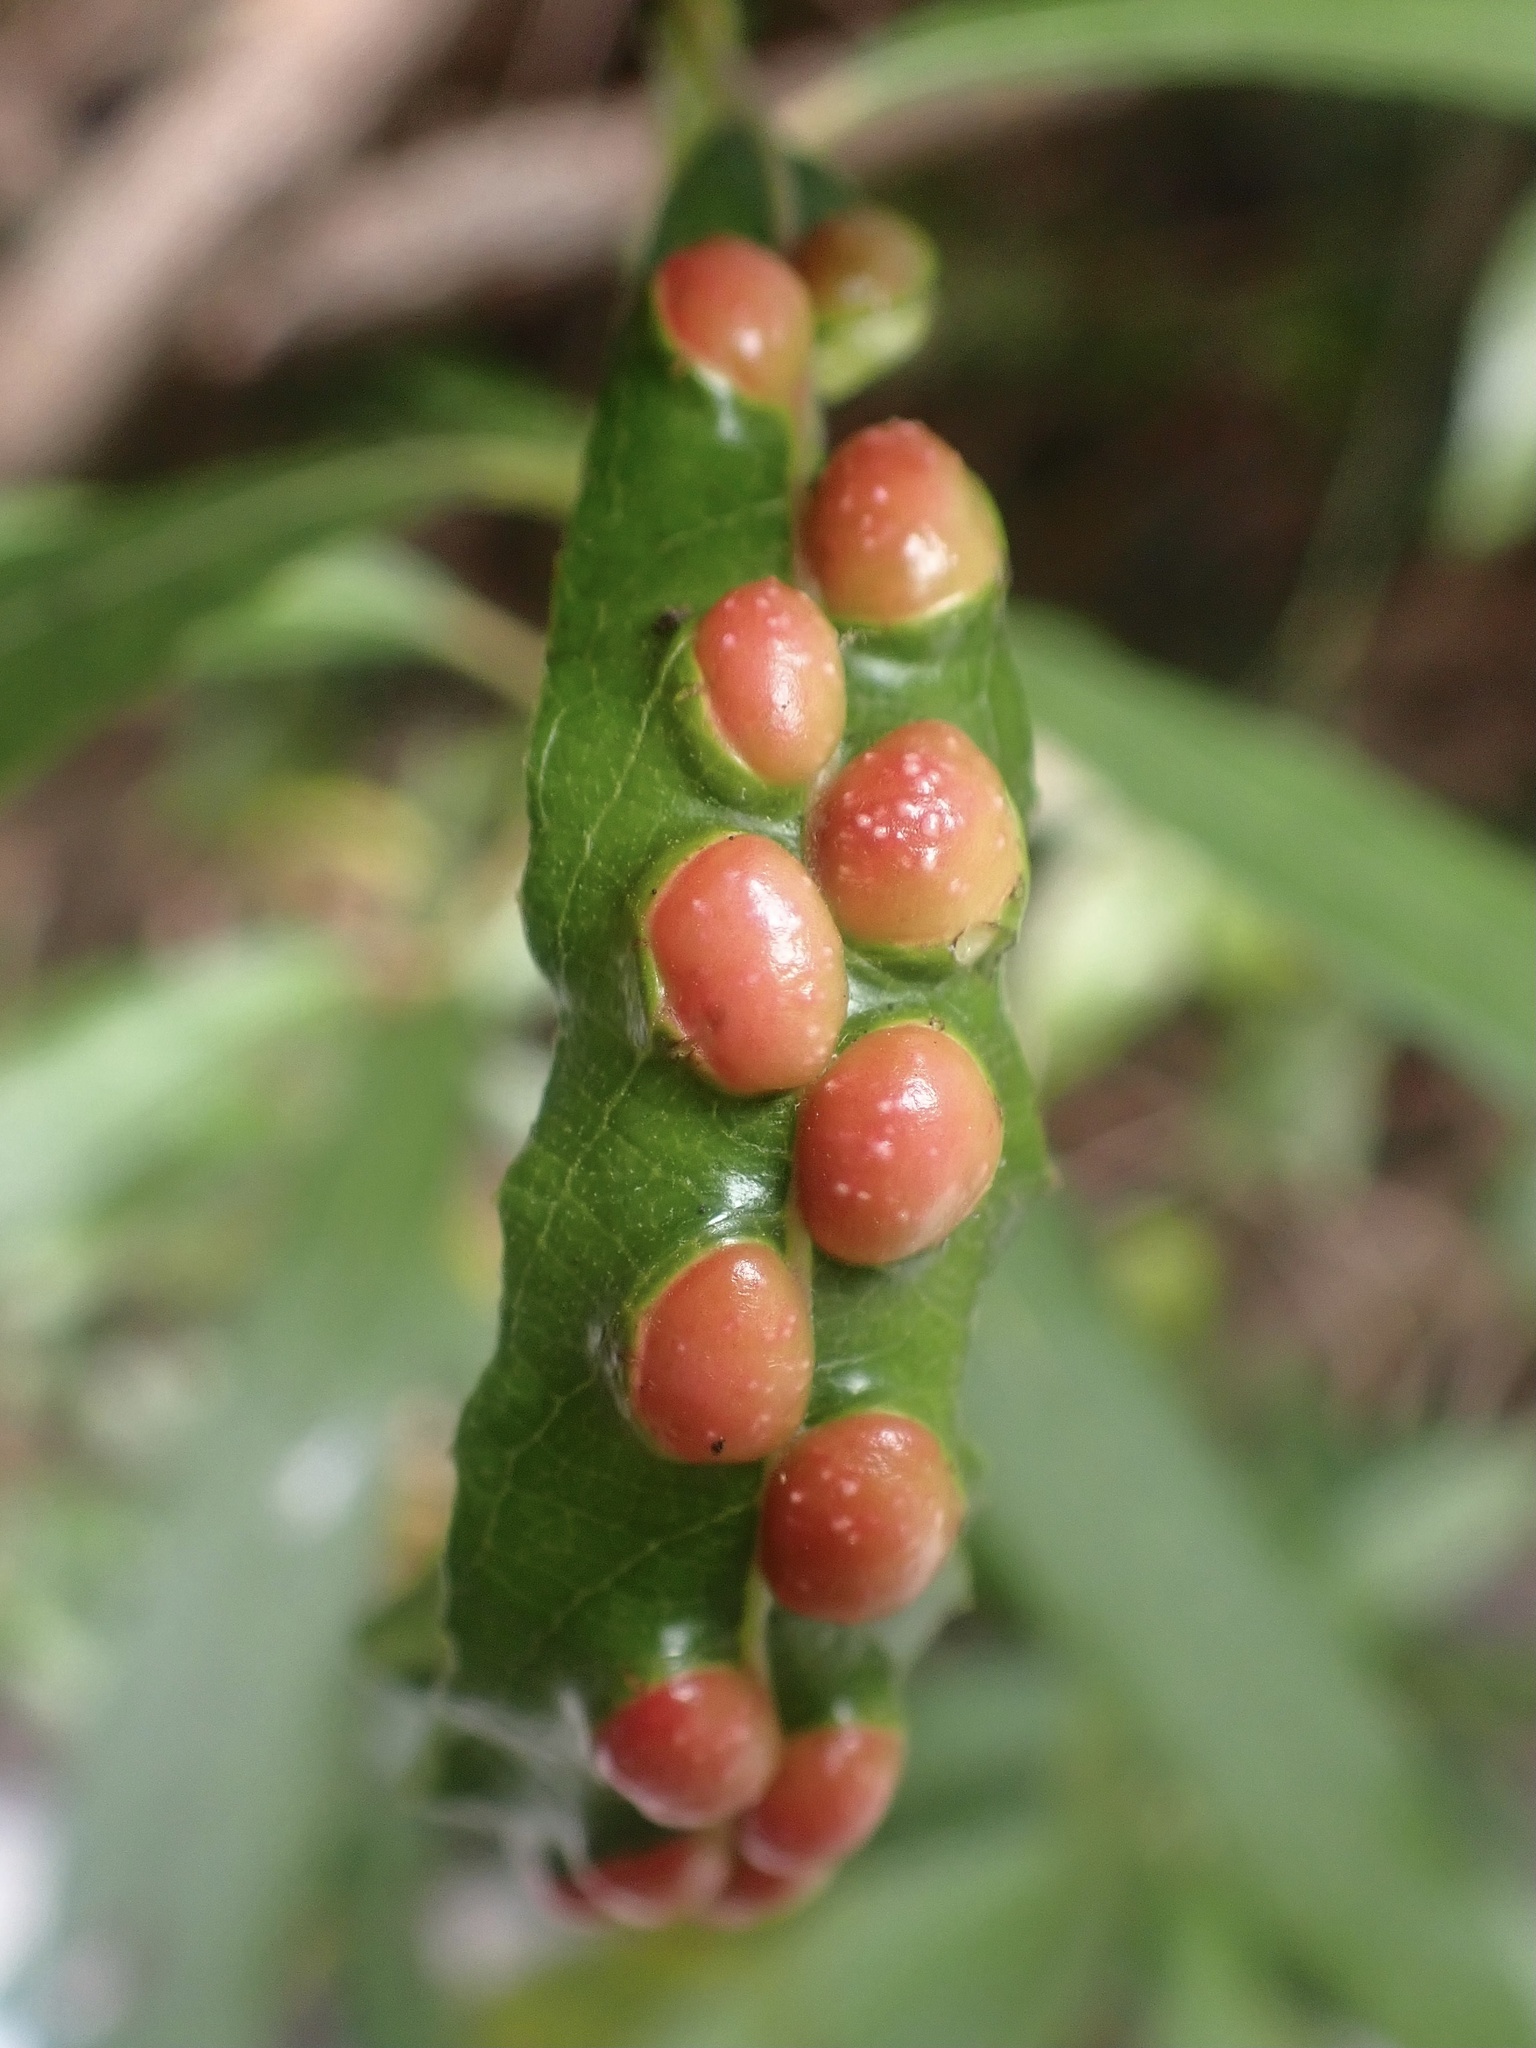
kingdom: Animalia
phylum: Arthropoda
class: Insecta
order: Hymenoptera
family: Tenthredinidae
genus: Euura
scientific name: Euura
